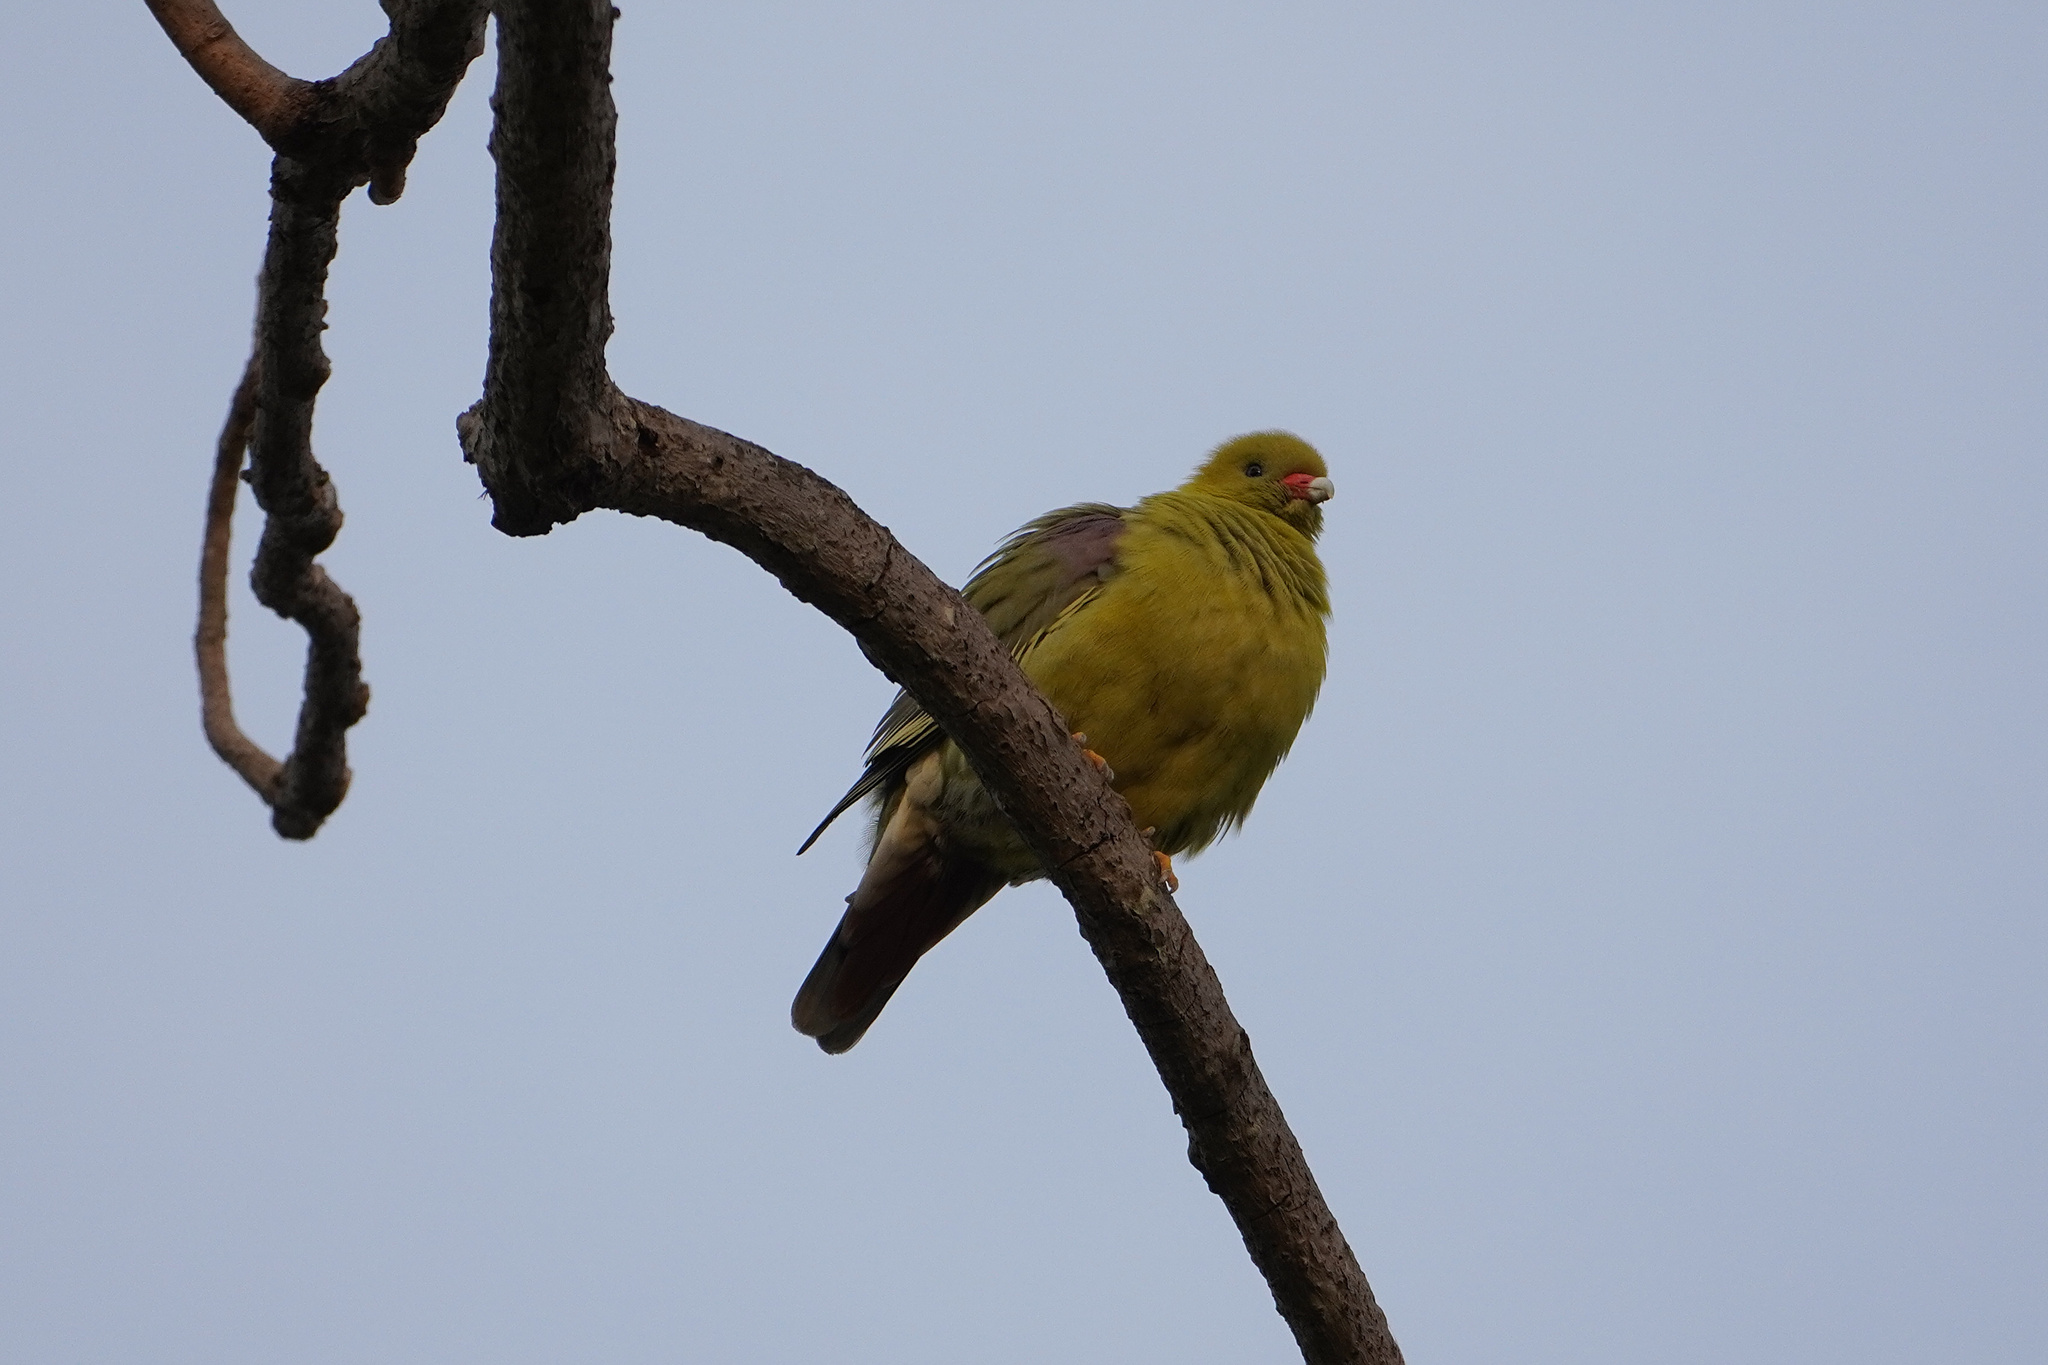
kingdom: Animalia
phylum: Chordata
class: Aves
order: Columbiformes
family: Columbidae
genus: Treron
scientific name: Treron calvus
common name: African green pigeon
